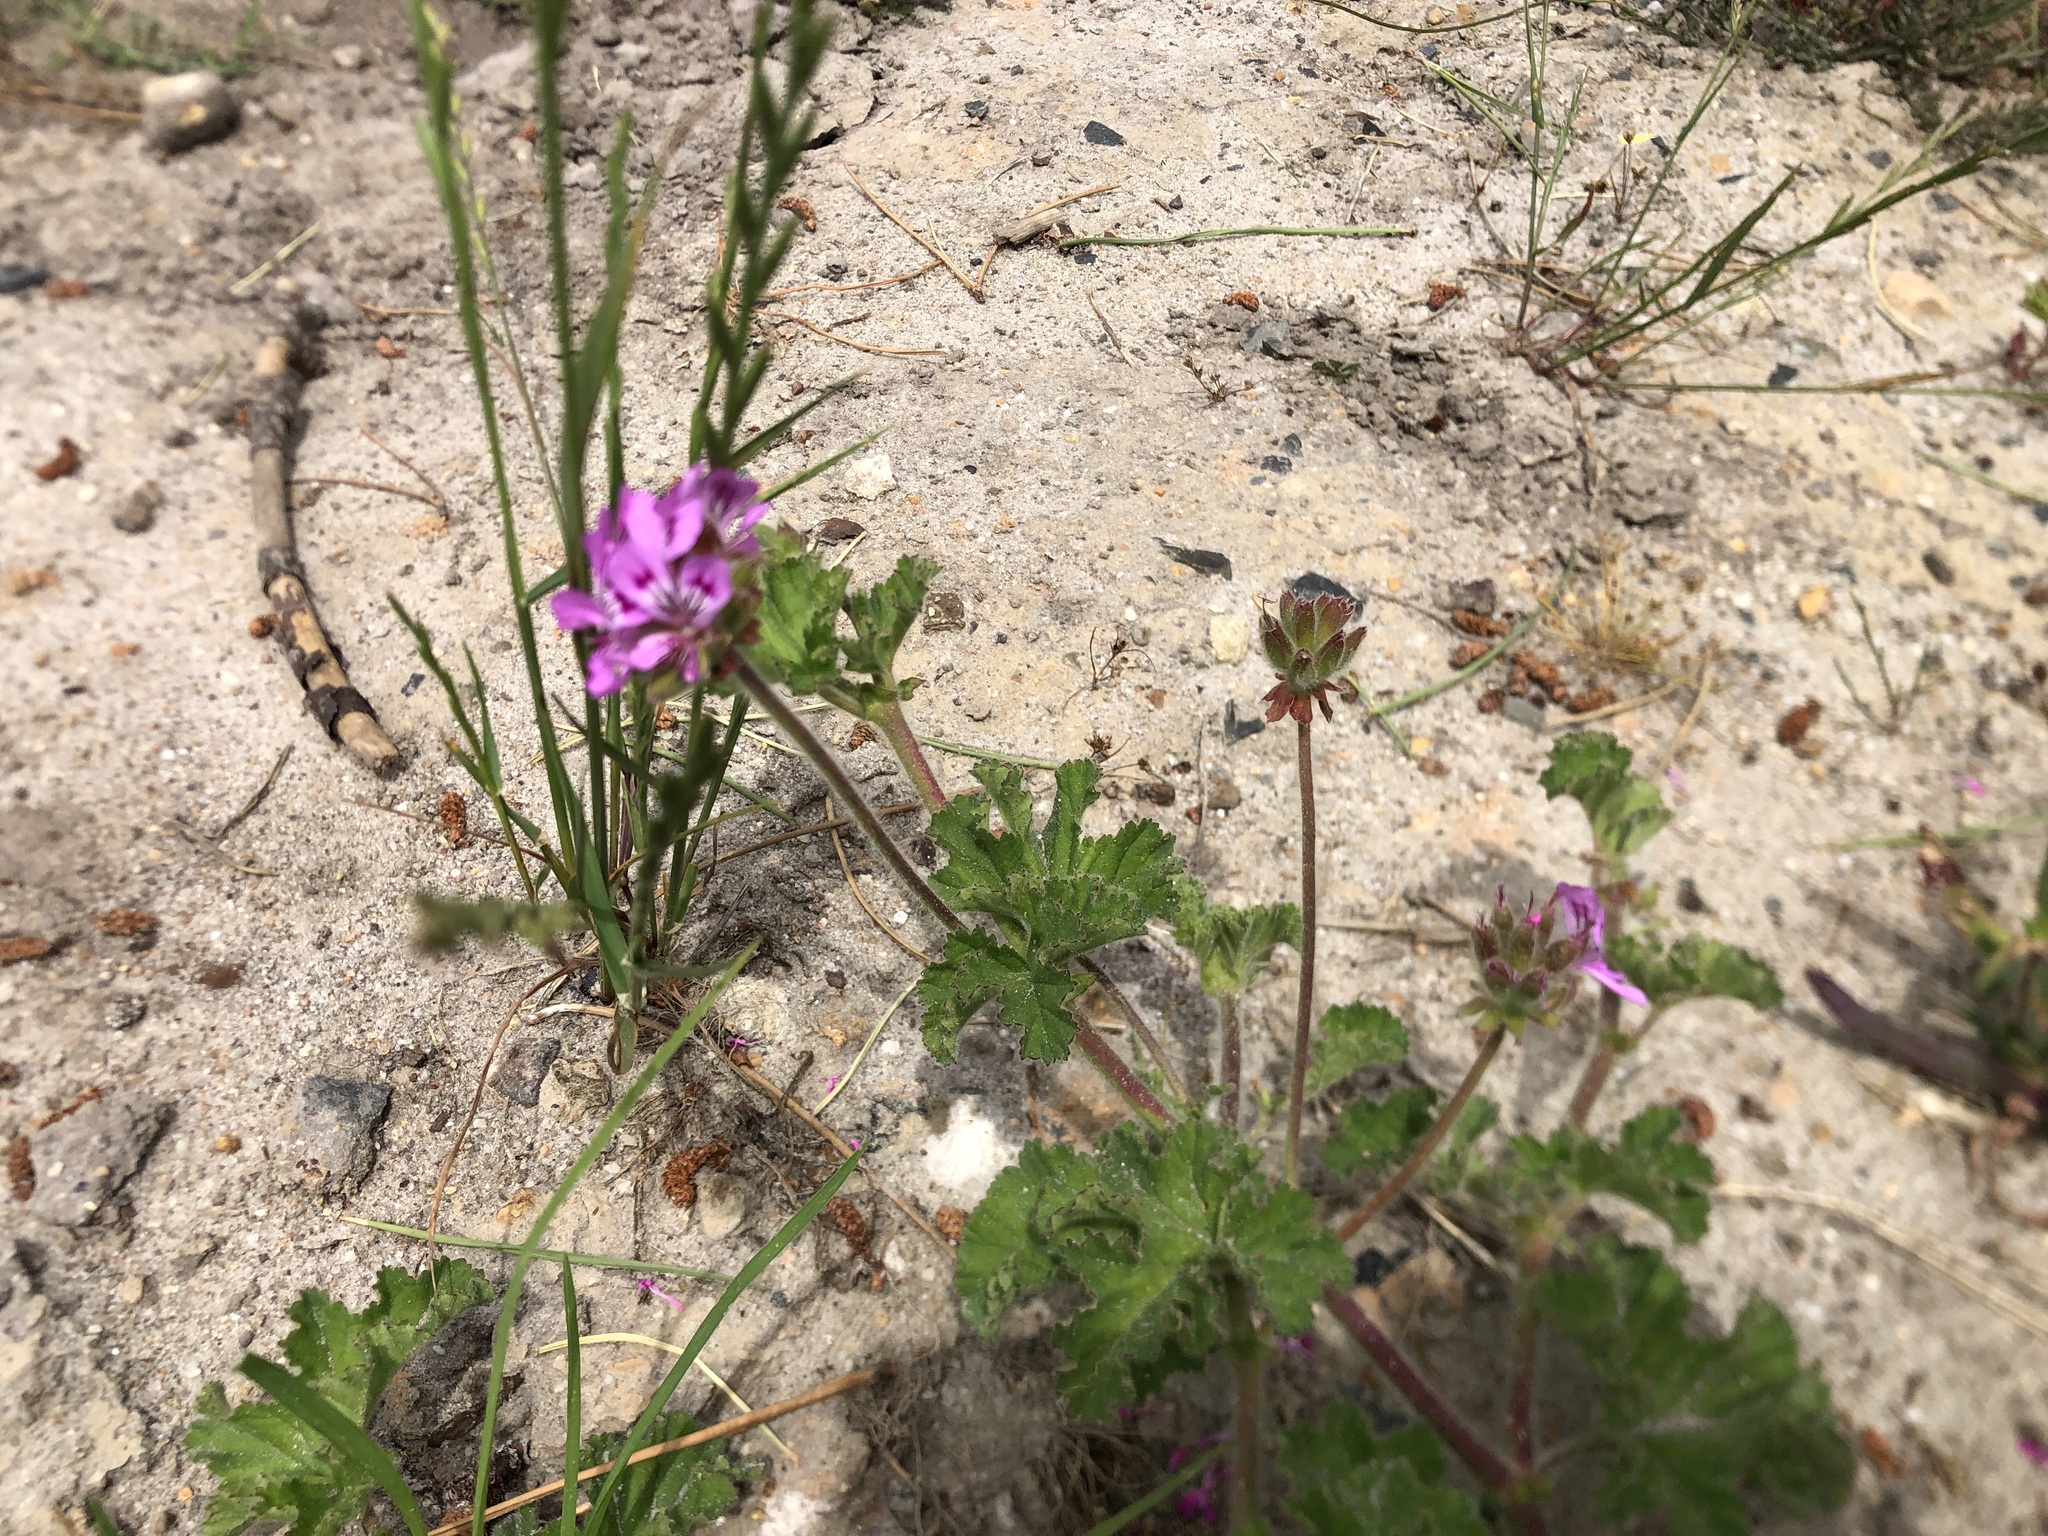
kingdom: Plantae
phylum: Tracheophyta
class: Magnoliopsida
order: Geraniales
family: Geraniaceae
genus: Pelargonium
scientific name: Pelargonium capitatum
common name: Rose scented geranium
